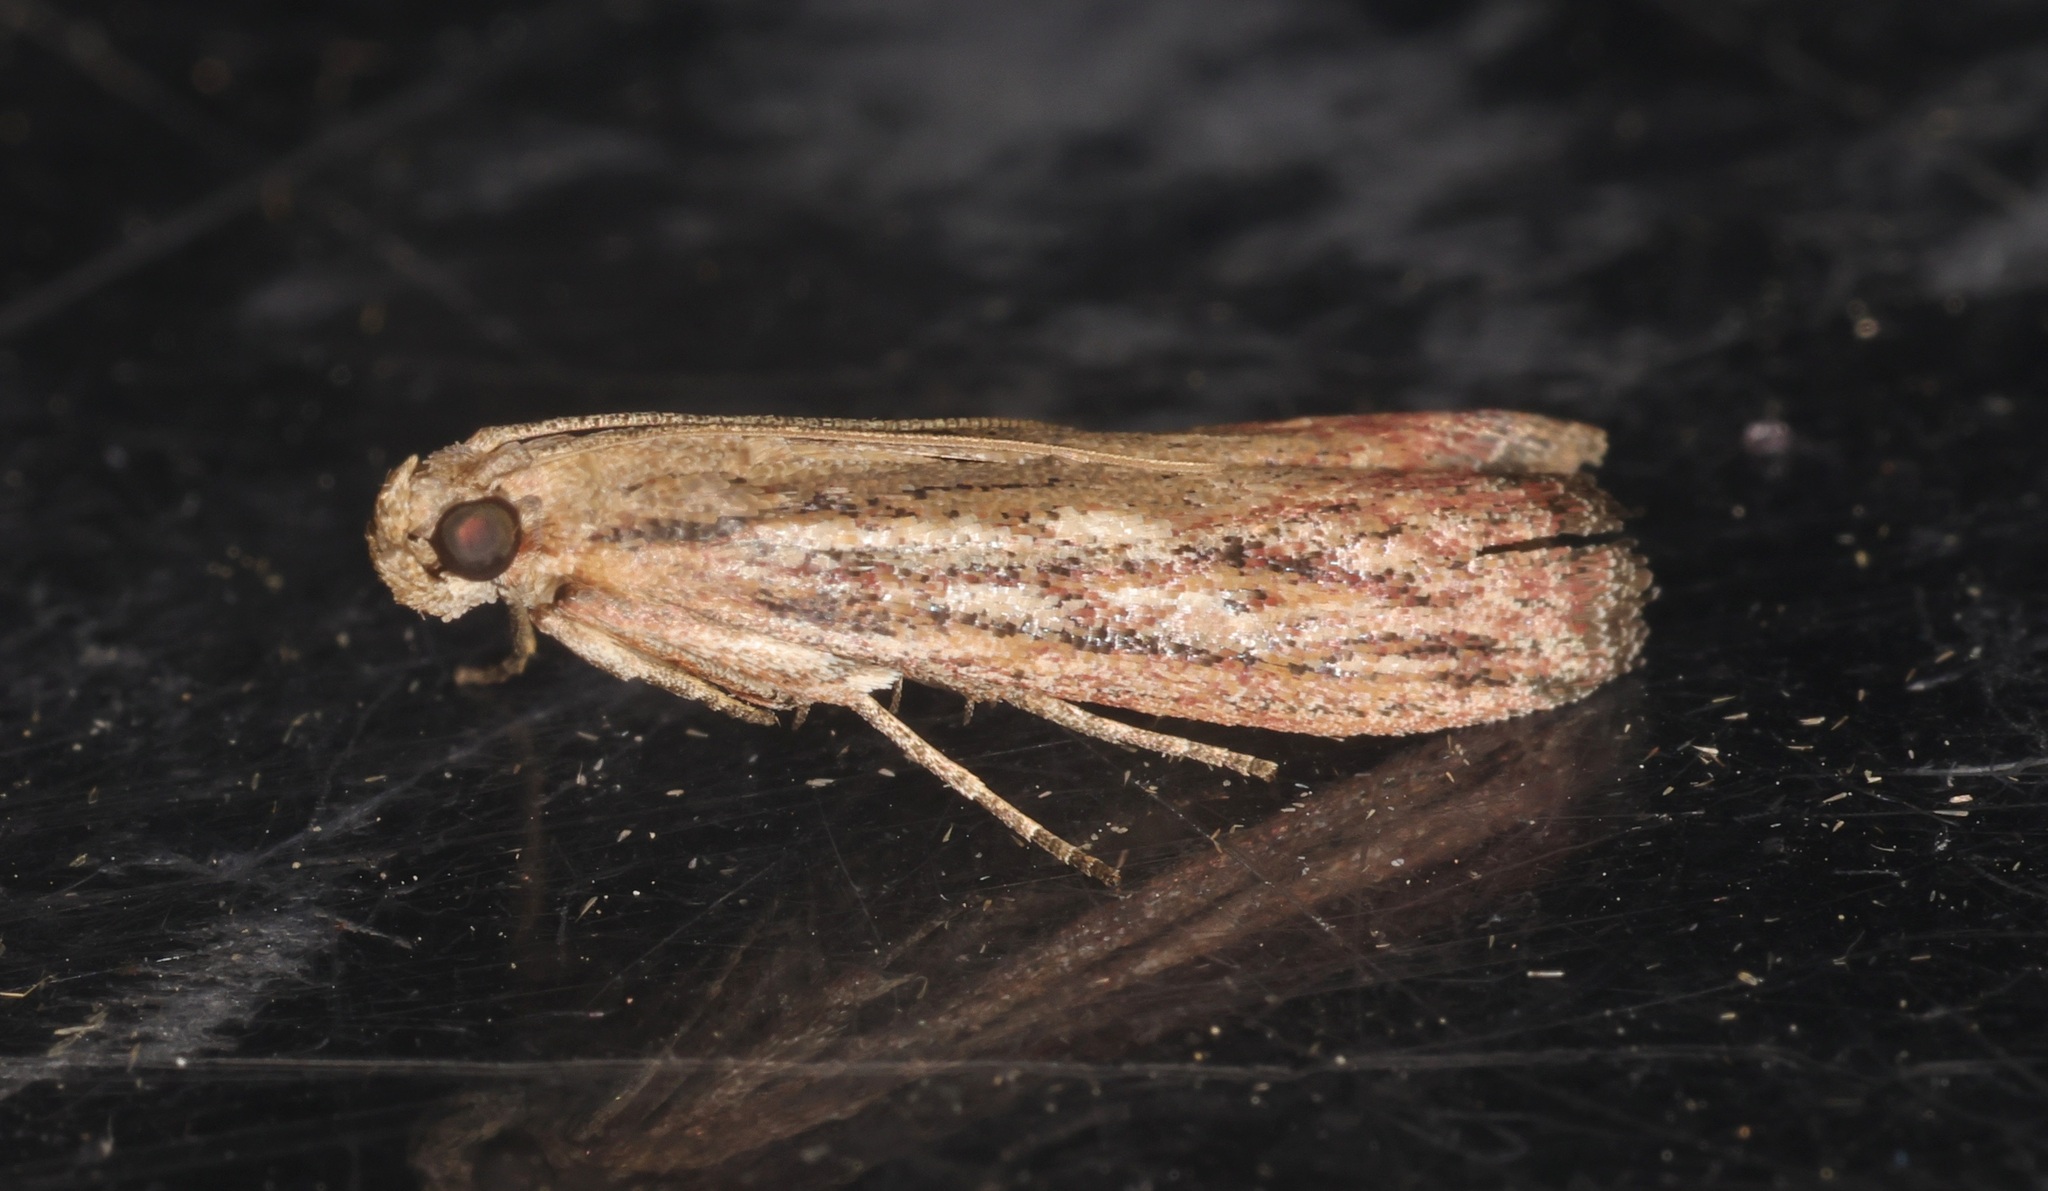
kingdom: Animalia
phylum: Arthropoda
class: Insecta
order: Lepidoptera
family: Pyralidae
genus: Zonula
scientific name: Zonula
